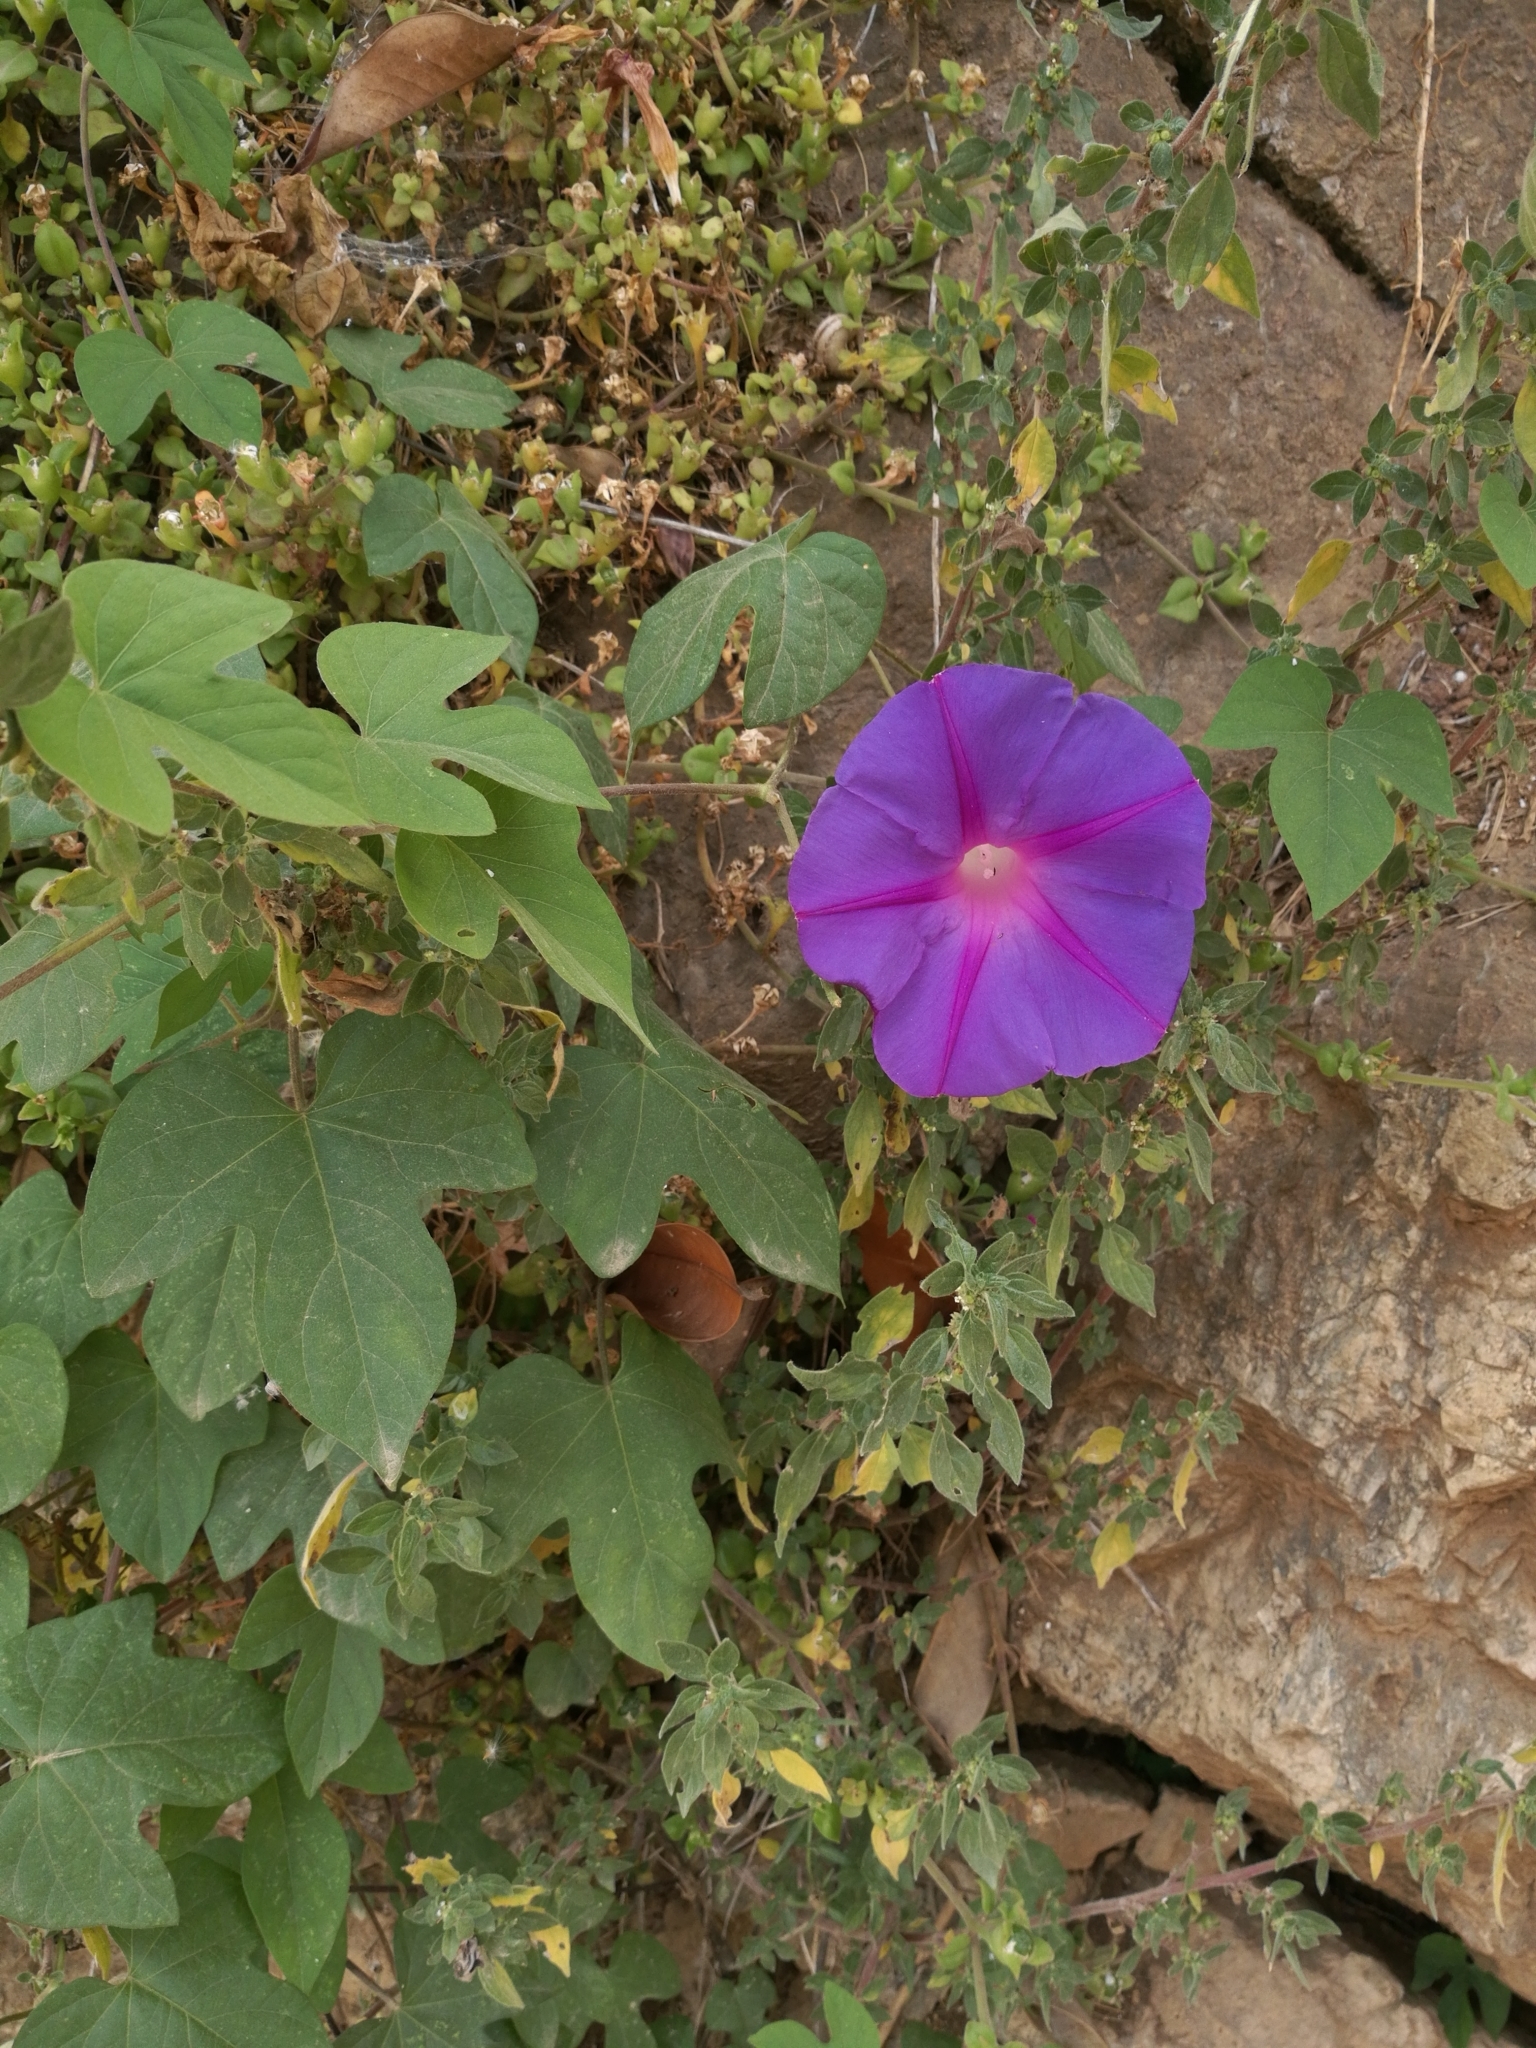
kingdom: Plantae
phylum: Tracheophyta
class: Magnoliopsida
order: Solanales
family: Convolvulaceae
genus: Ipomoea
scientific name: Ipomoea indica
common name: Blue dawnflower
